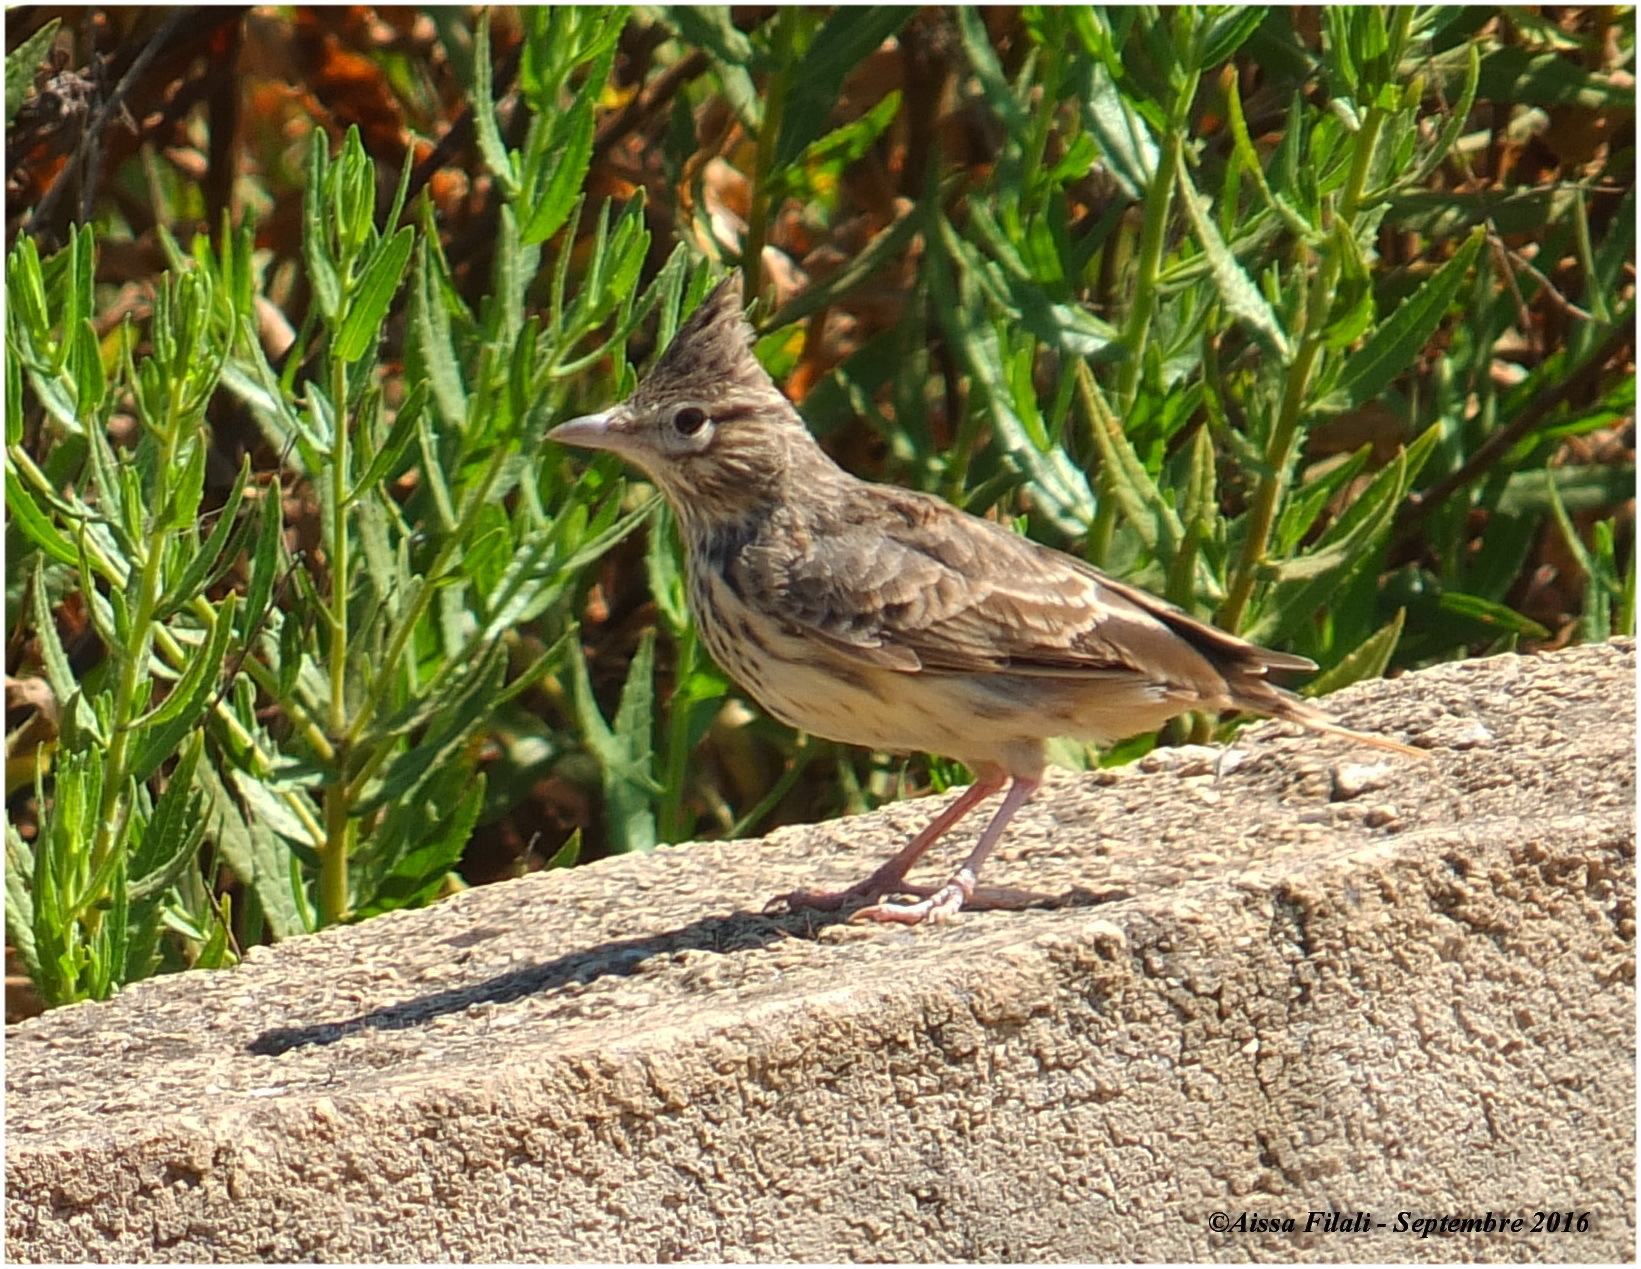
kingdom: Animalia
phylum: Chordata
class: Aves
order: Passeriformes
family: Alaudidae
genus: Galerida
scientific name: Galerida cristata
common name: Crested lark
